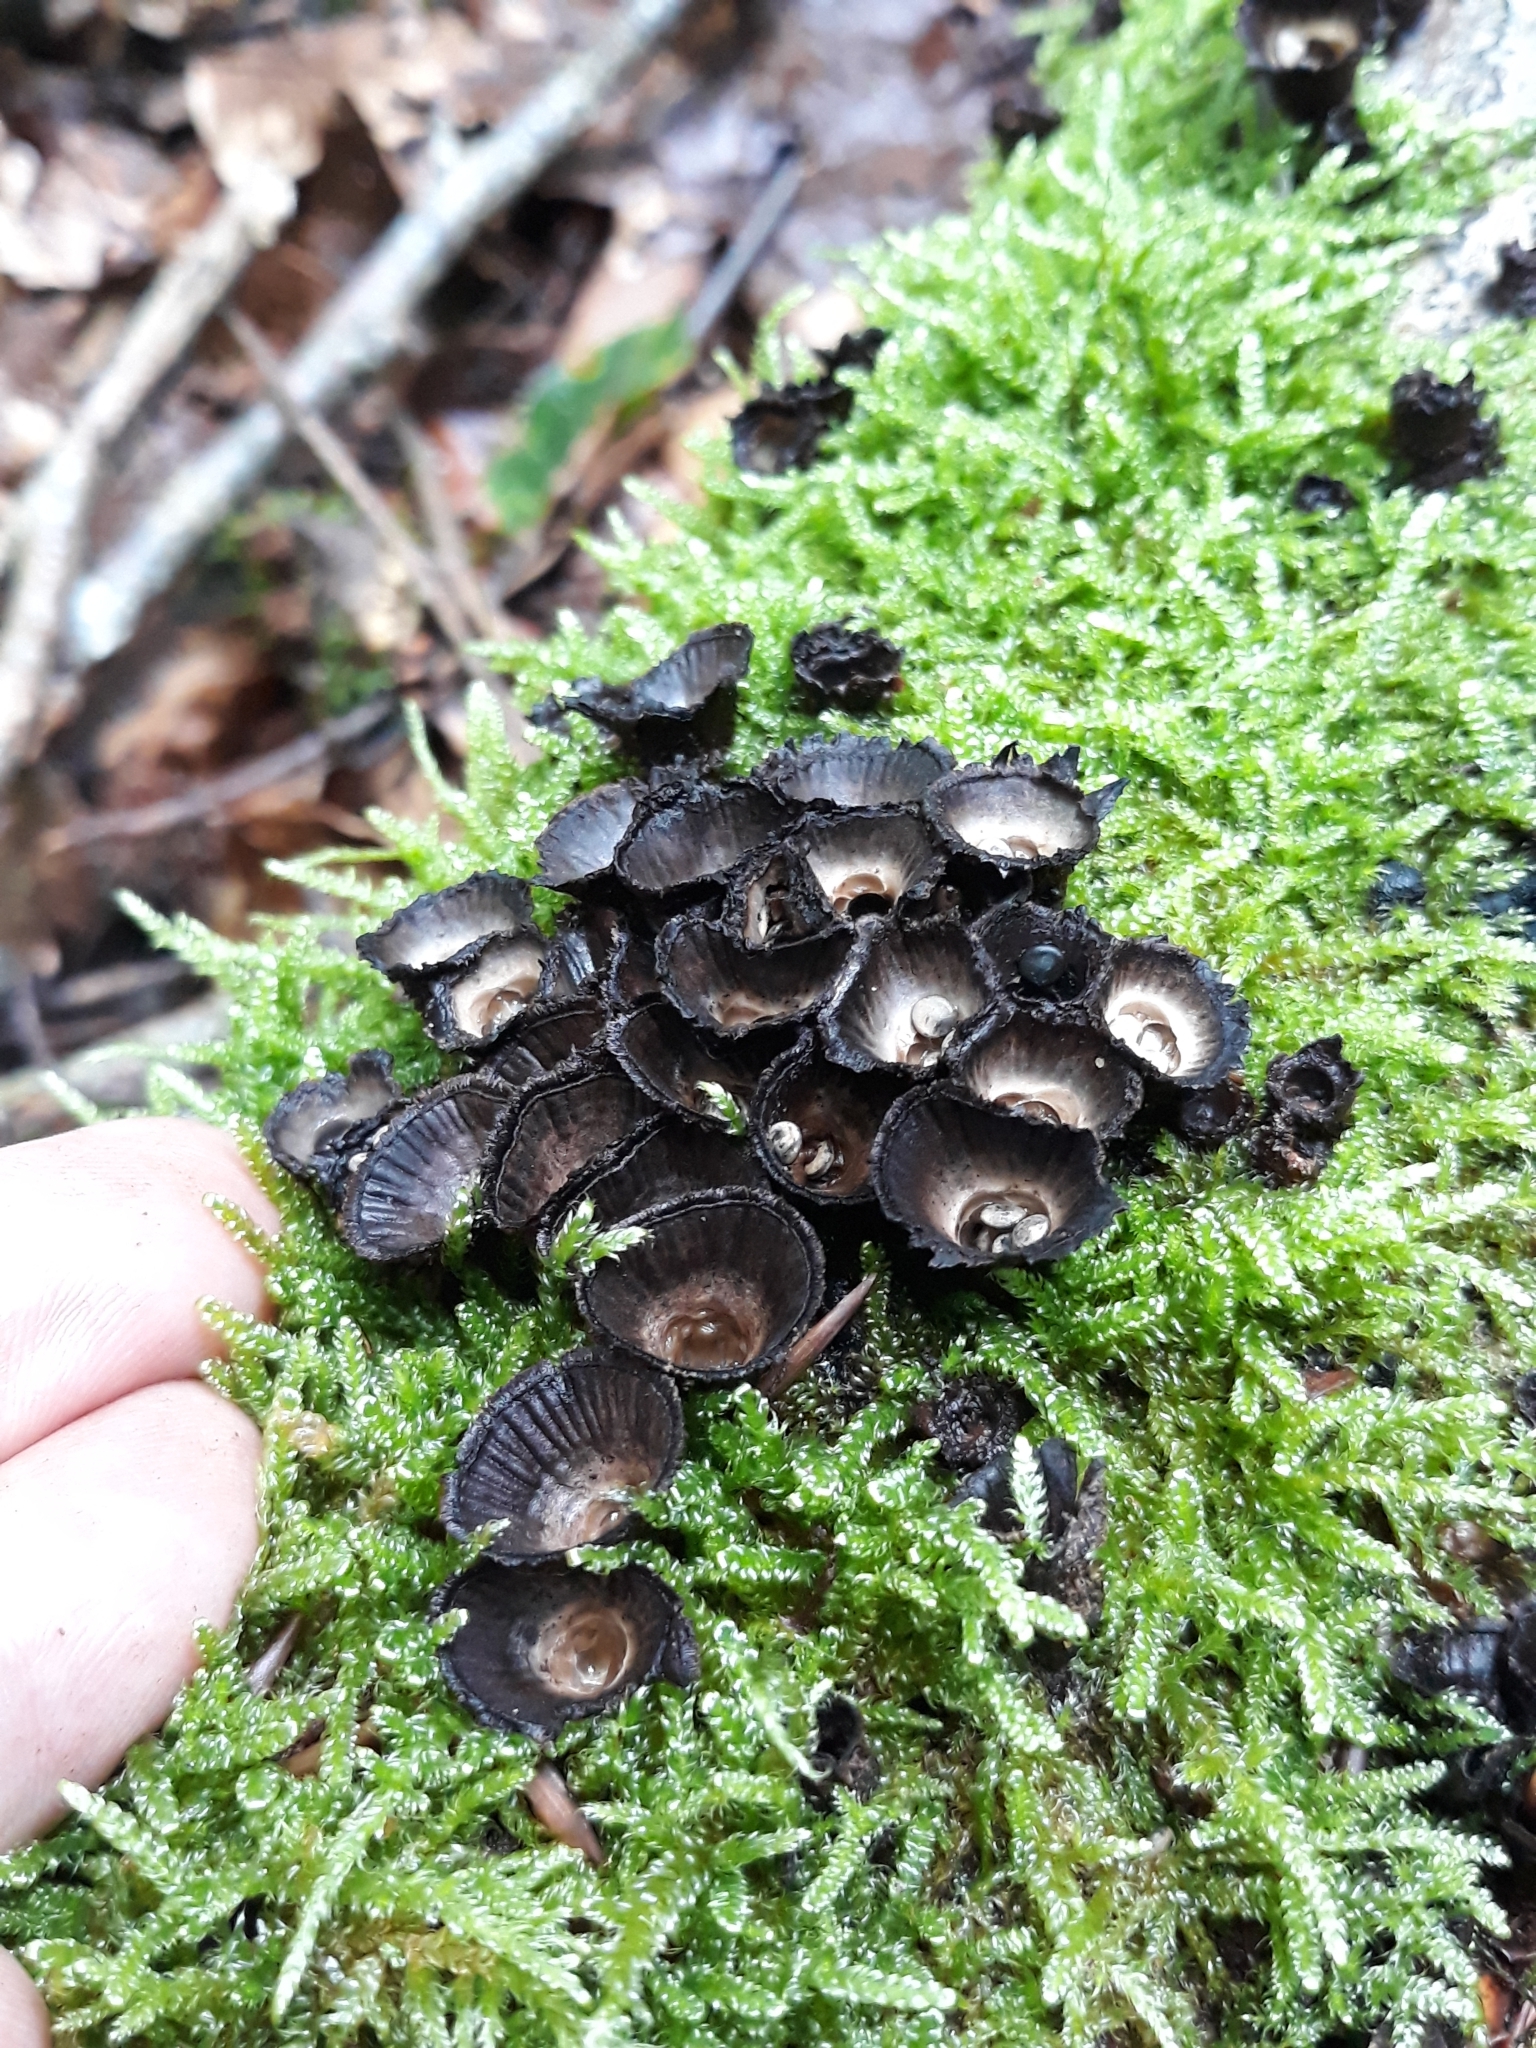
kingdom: Fungi
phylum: Basidiomycota
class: Agaricomycetes
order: Agaricales
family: Agaricaceae
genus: Cyathus
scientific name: Cyathus striatus
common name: Fluted bird's nest
